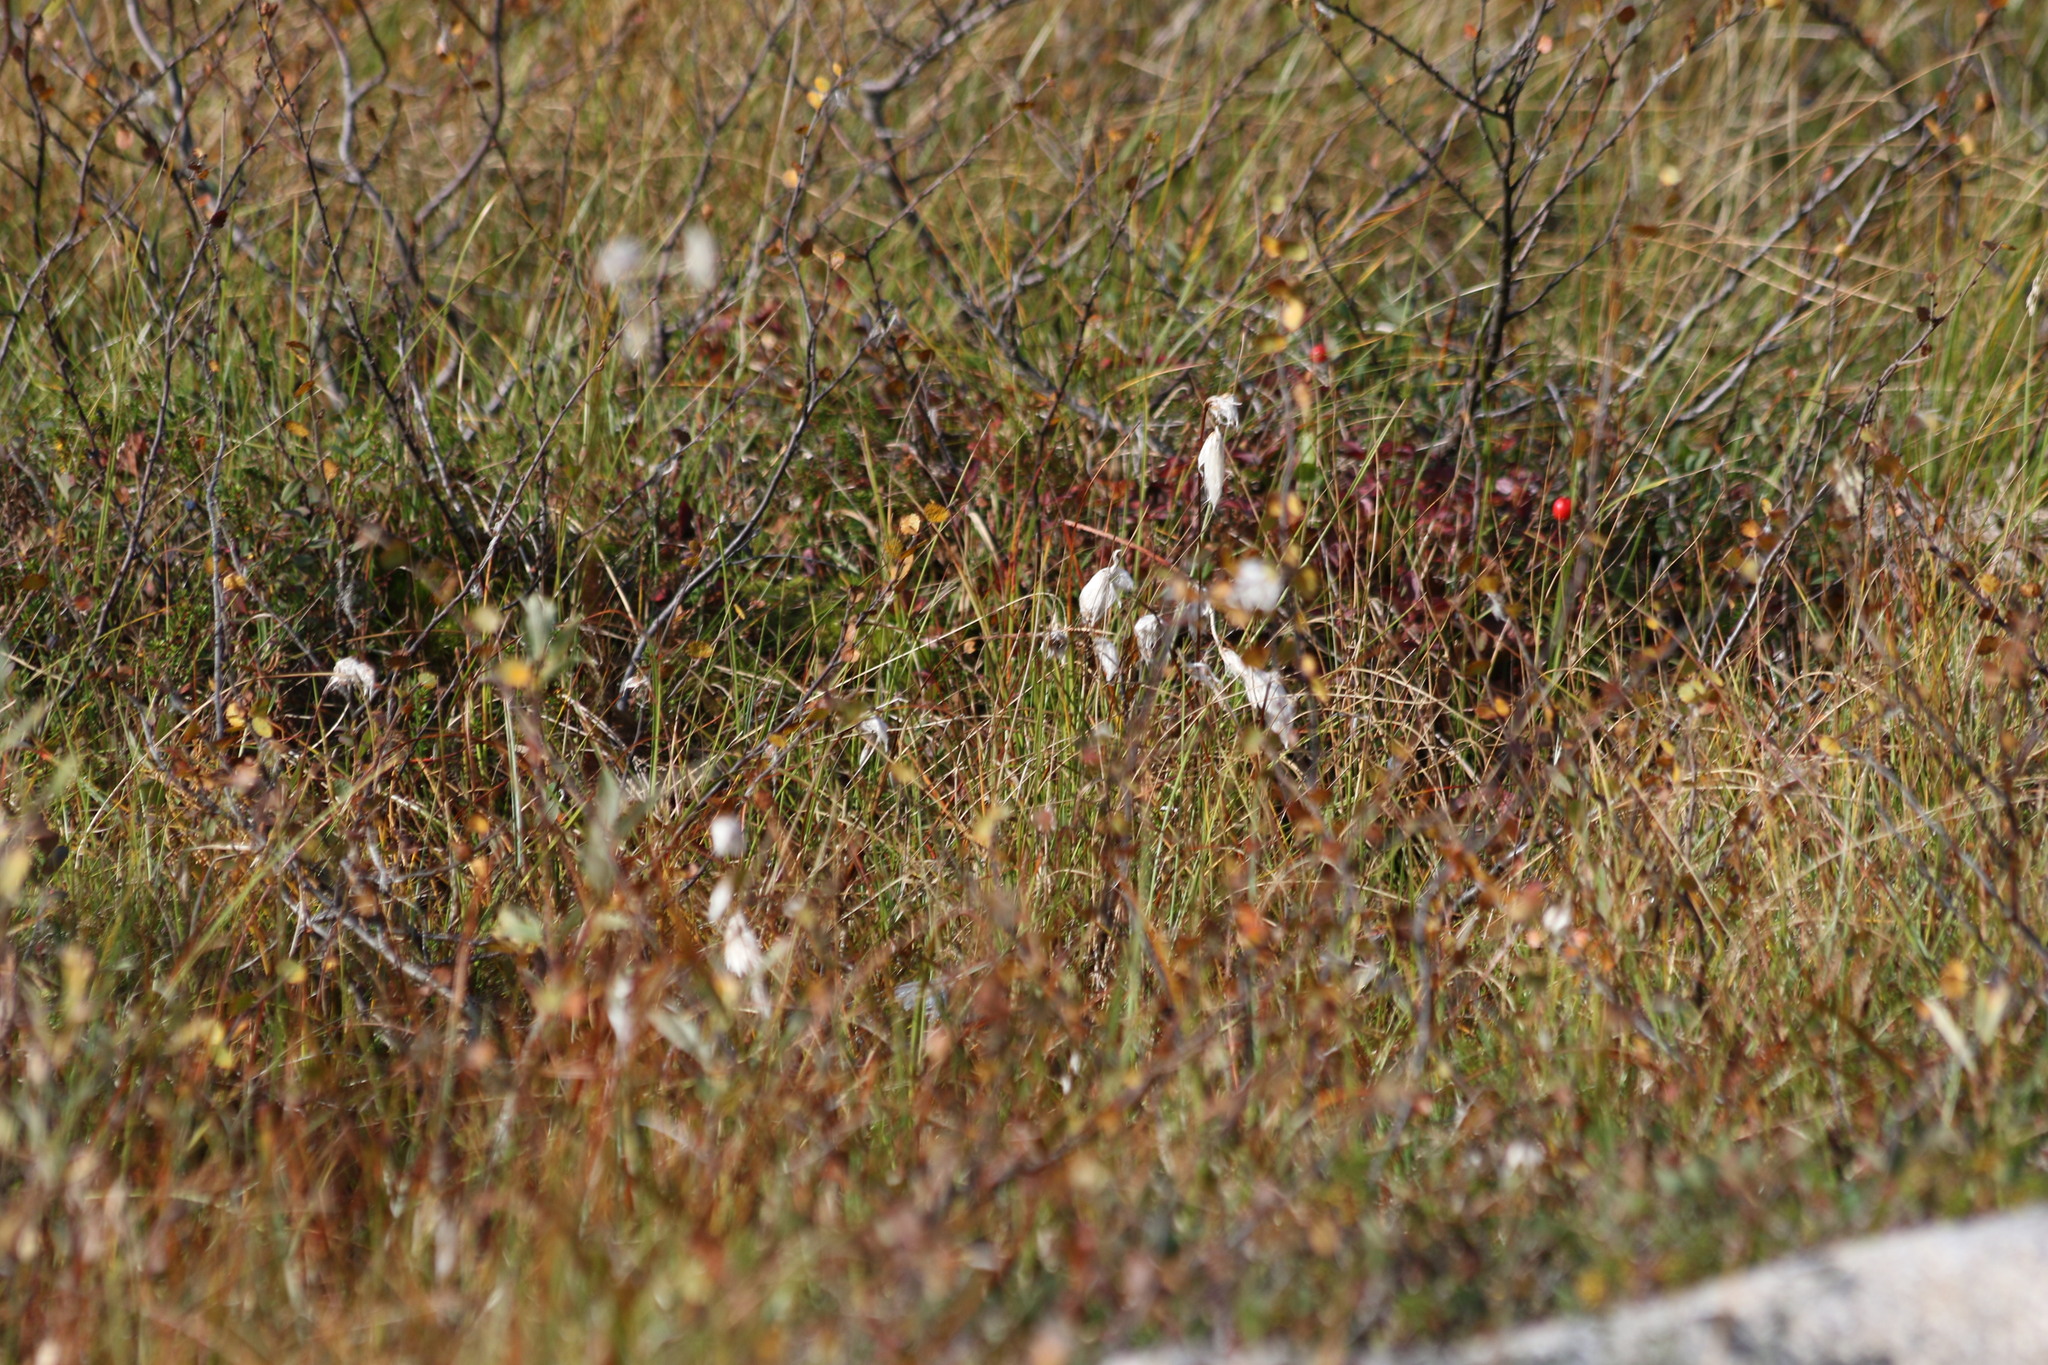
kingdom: Plantae
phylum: Tracheophyta
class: Liliopsida
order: Poales
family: Cyperaceae
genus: Eriophorum
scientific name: Eriophorum angustifolium
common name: Common cottongrass
